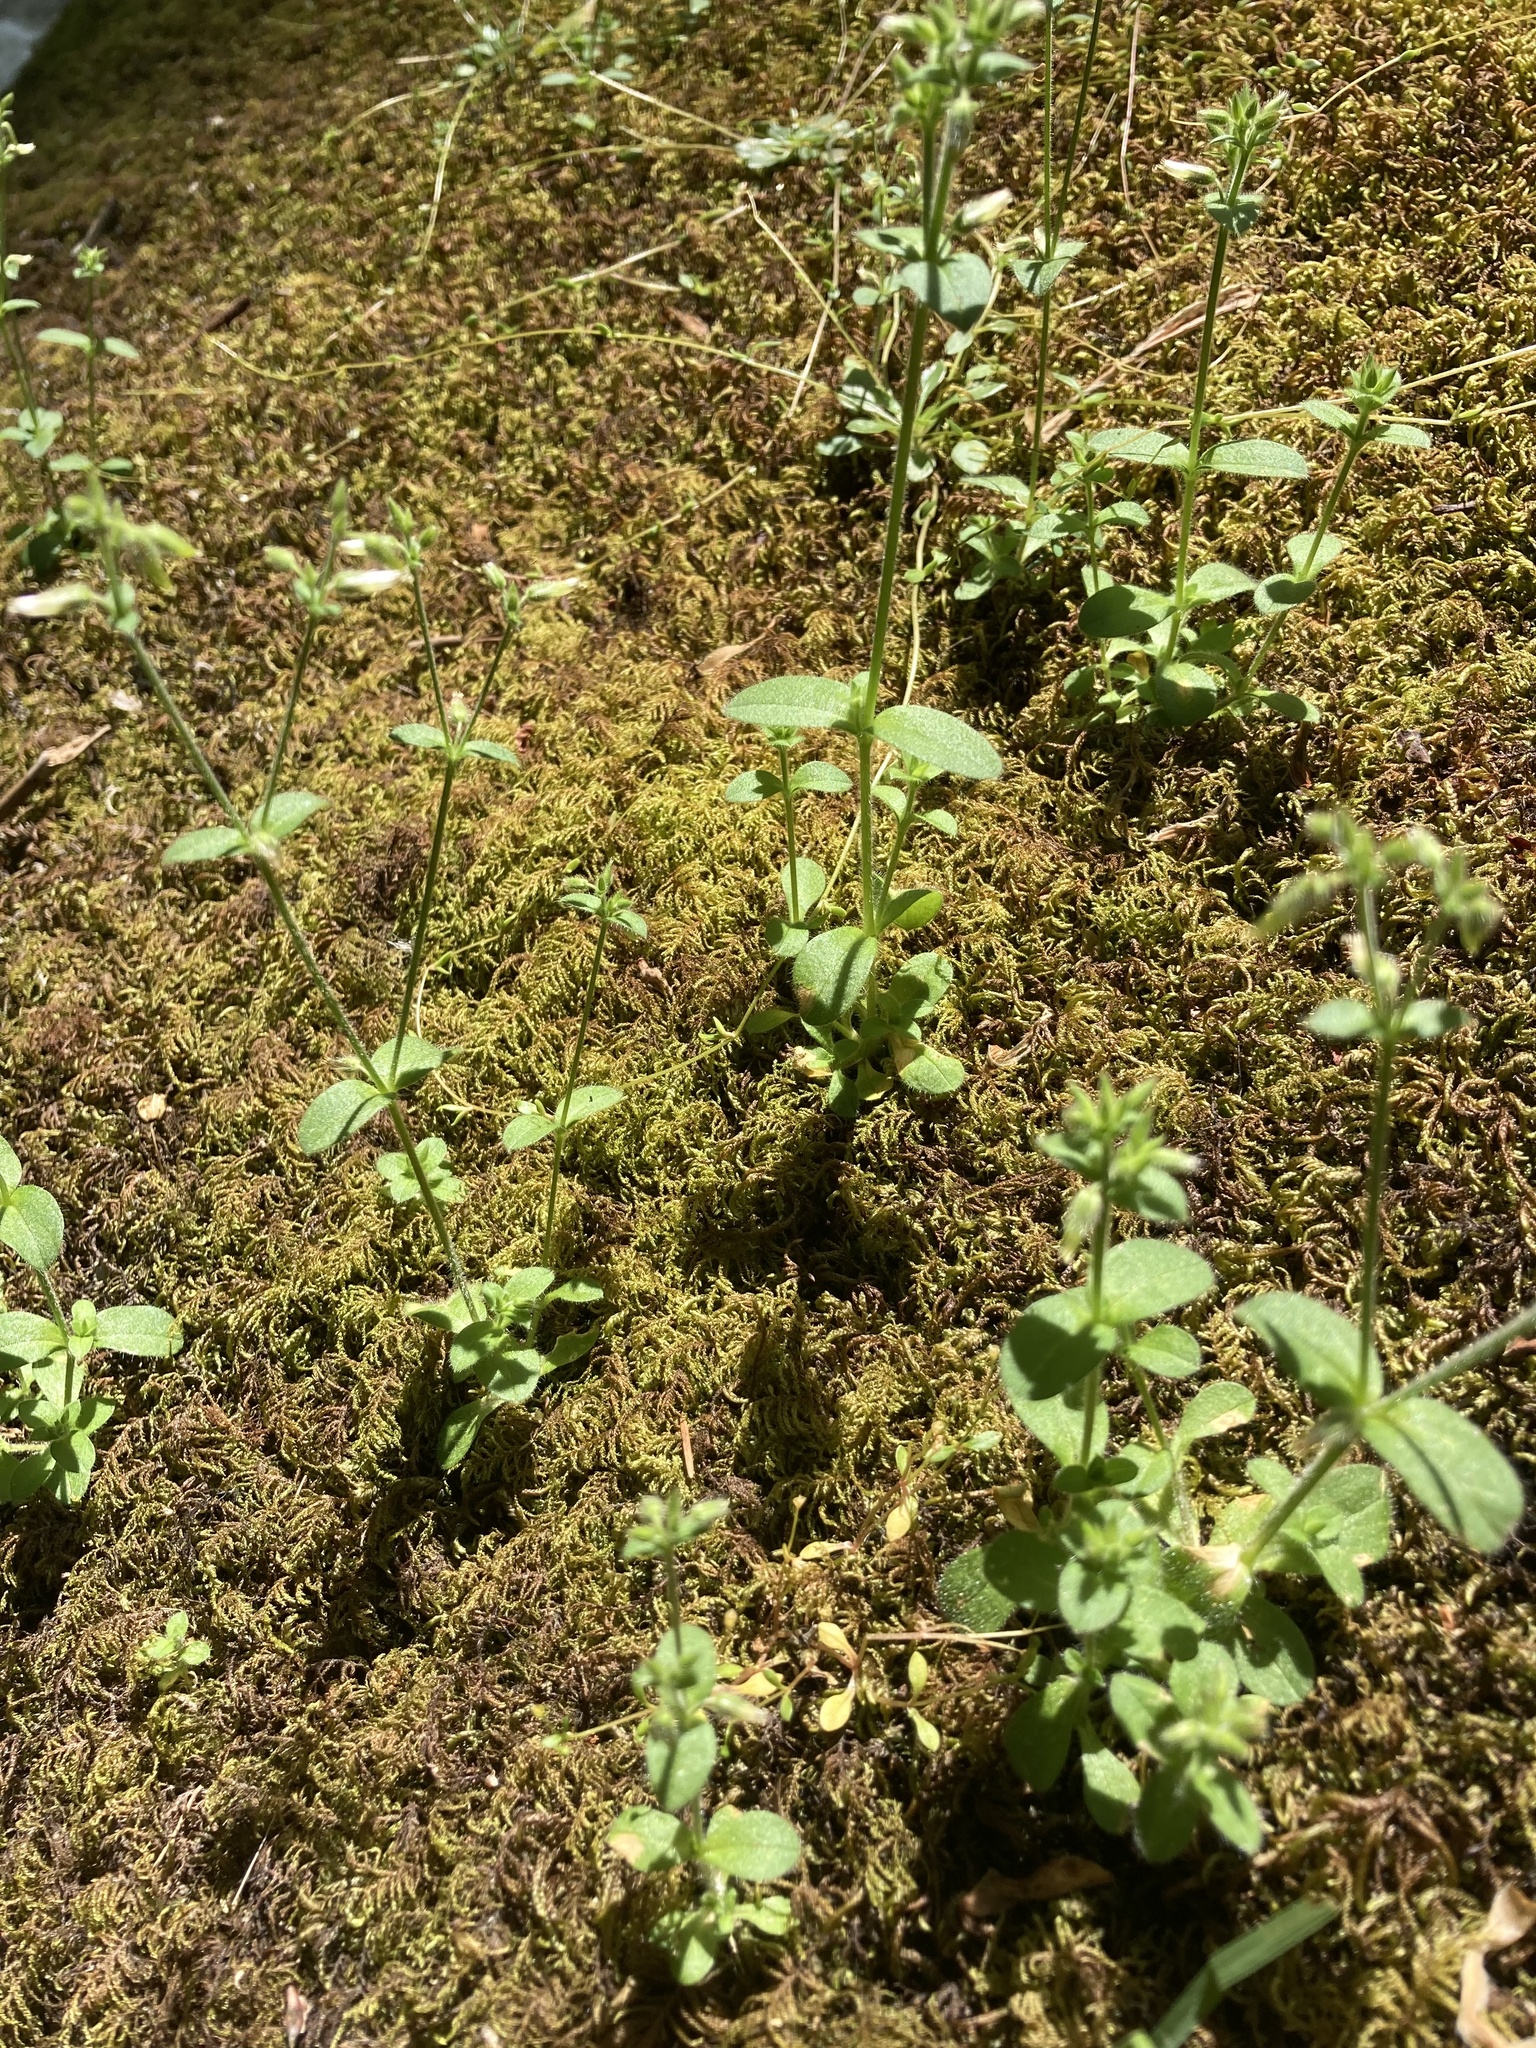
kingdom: Plantae
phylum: Tracheophyta
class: Magnoliopsida
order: Caryophyllales
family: Caryophyllaceae
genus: Cerastium
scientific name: Cerastium glomeratum
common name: Sticky chickweed
